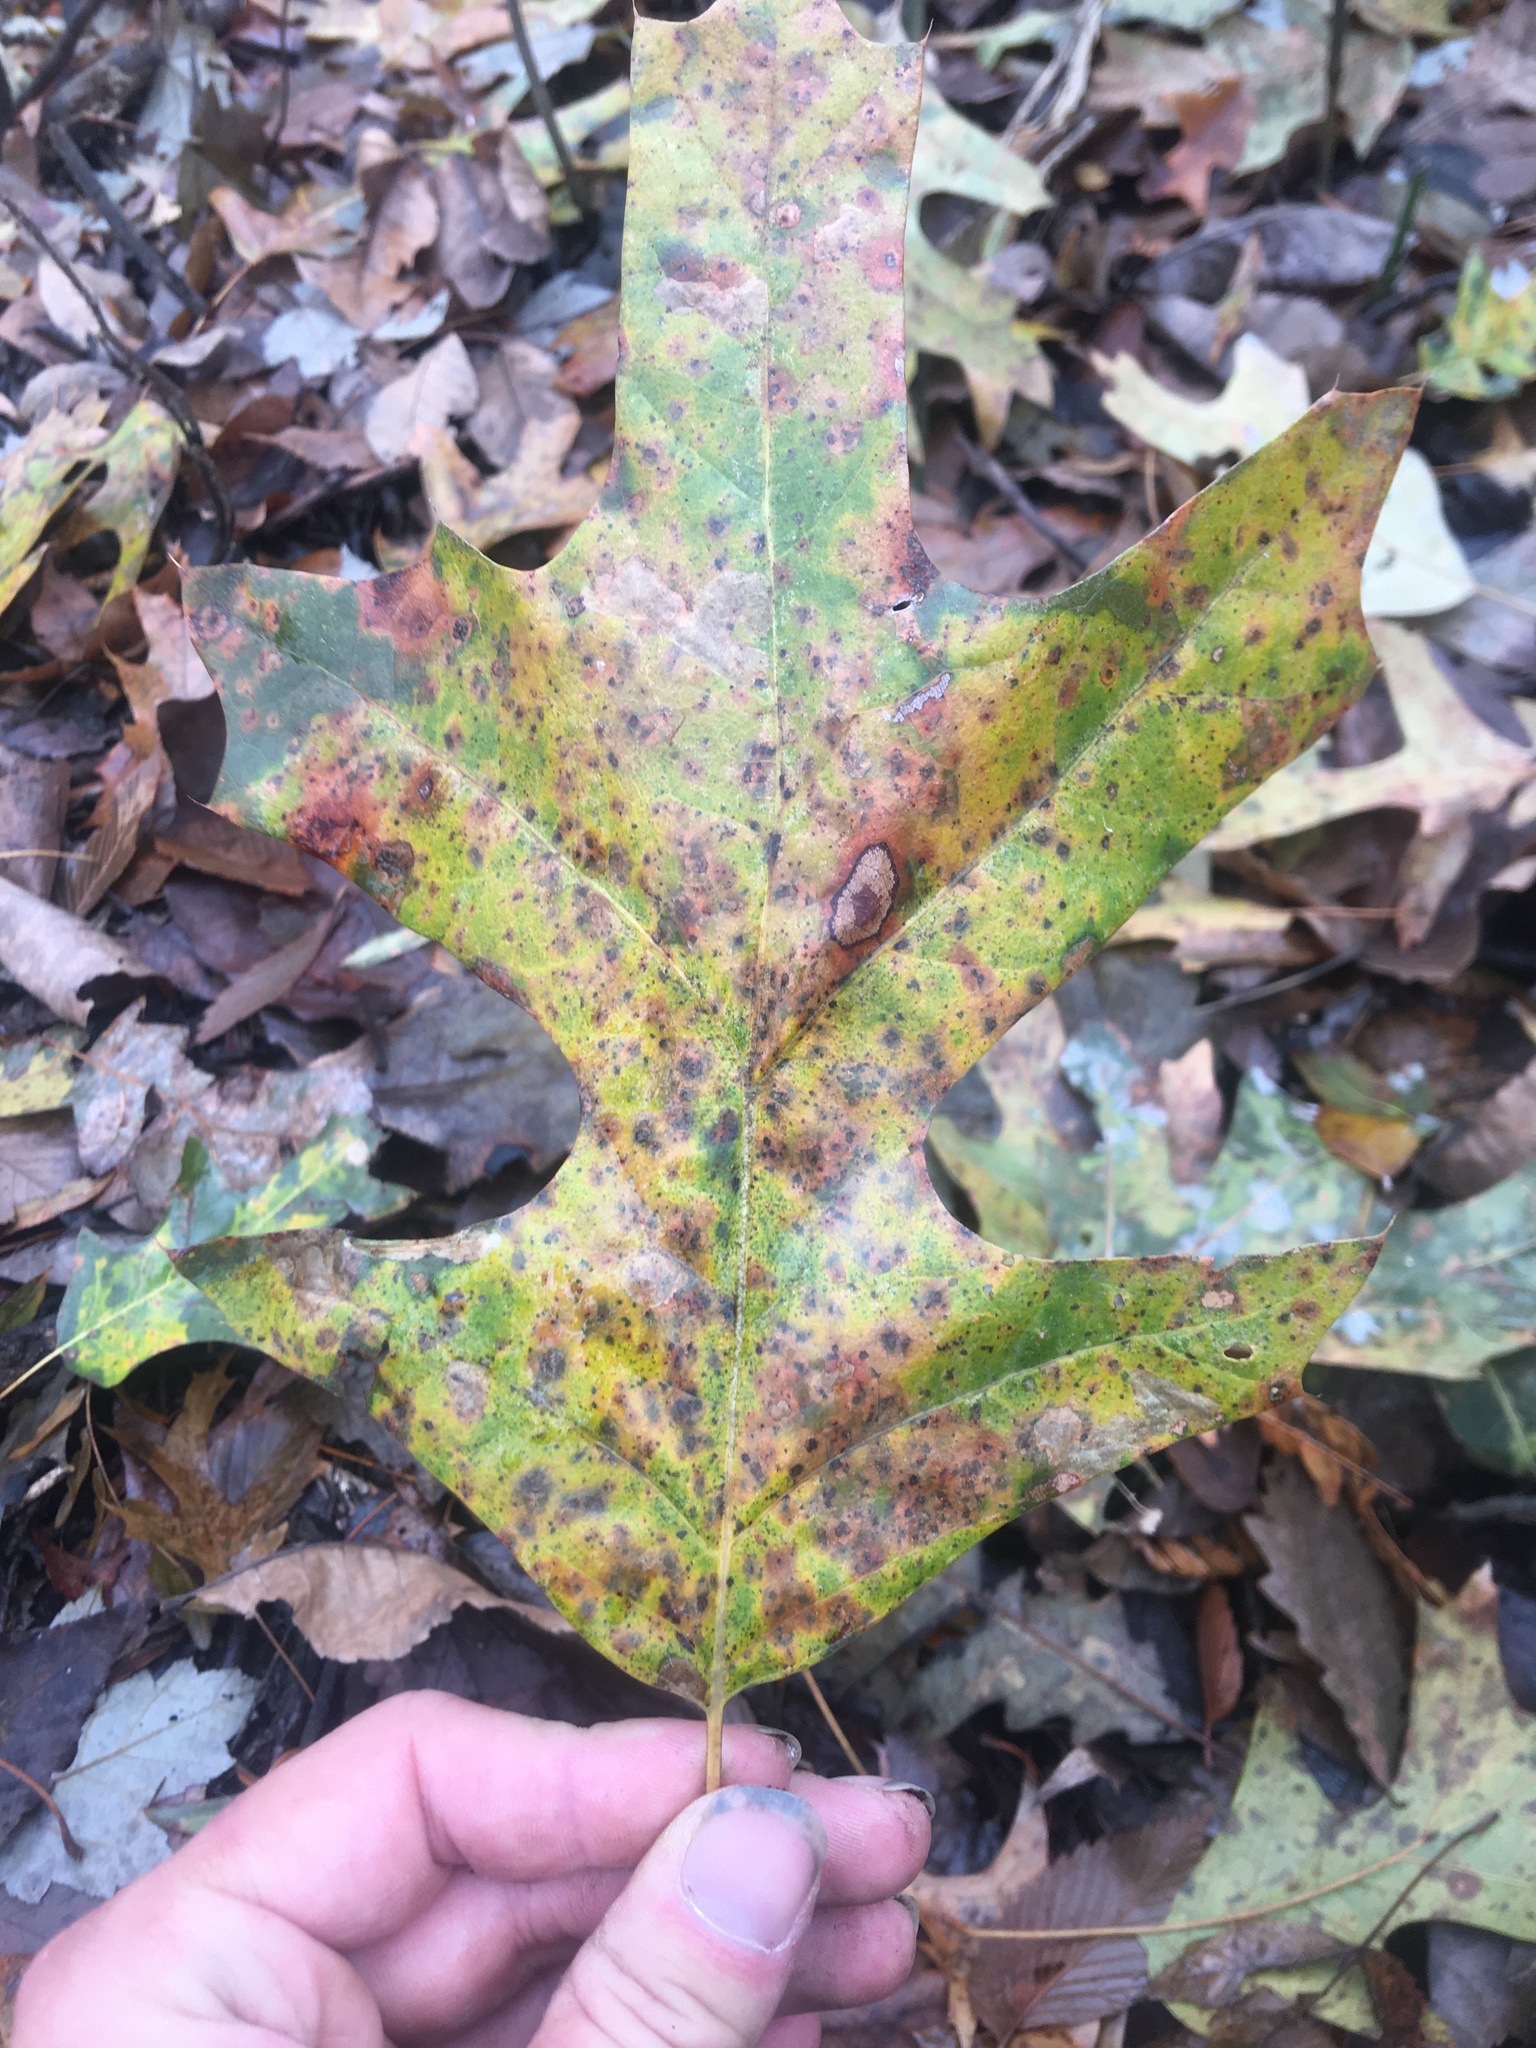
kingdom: Plantae
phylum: Tracheophyta
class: Magnoliopsida
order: Fagales
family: Fagaceae
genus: Quercus
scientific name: Quercus pagoda
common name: Cherrybark oak
